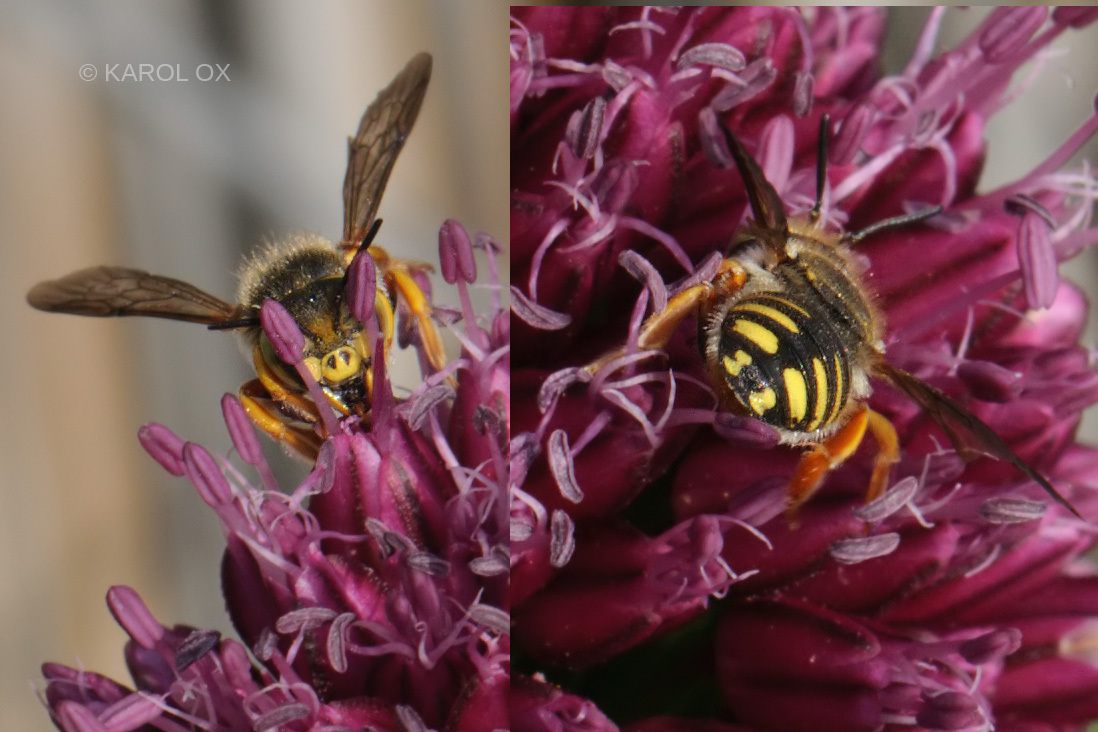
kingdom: Animalia
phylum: Arthropoda
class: Insecta
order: Hymenoptera
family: Megachilidae
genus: Anthidium
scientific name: Anthidium oblongatum
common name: Oblong wool carder bee
